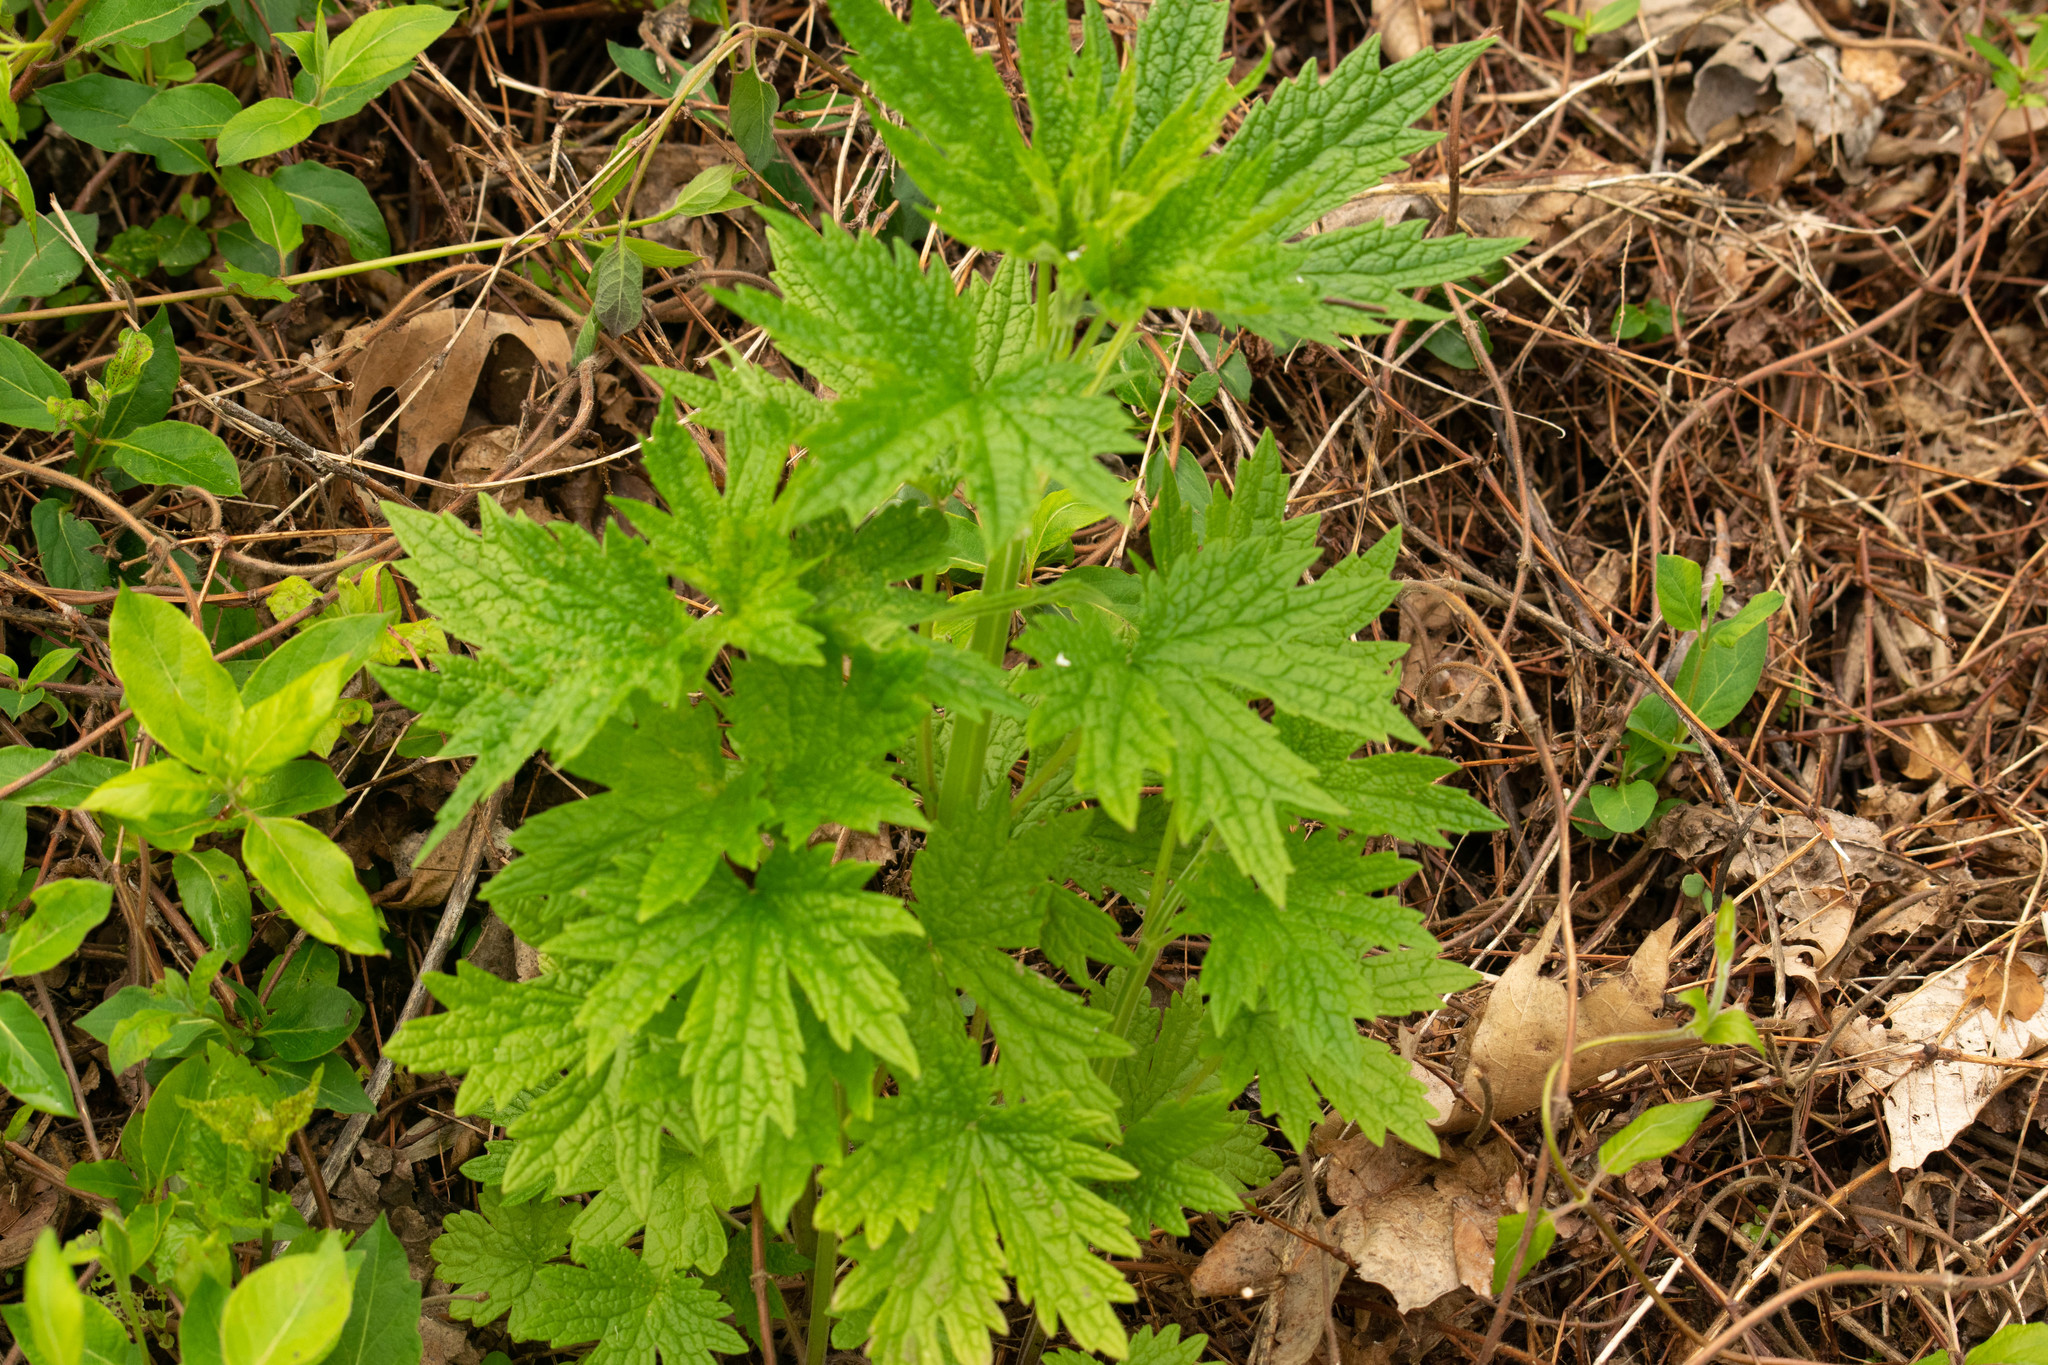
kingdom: Plantae
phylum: Tracheophyta
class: Magnoliopsida
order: Lamiales
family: Lamiaceae
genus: Leonurus
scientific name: Leonurus cardiaca
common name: Motherwort
